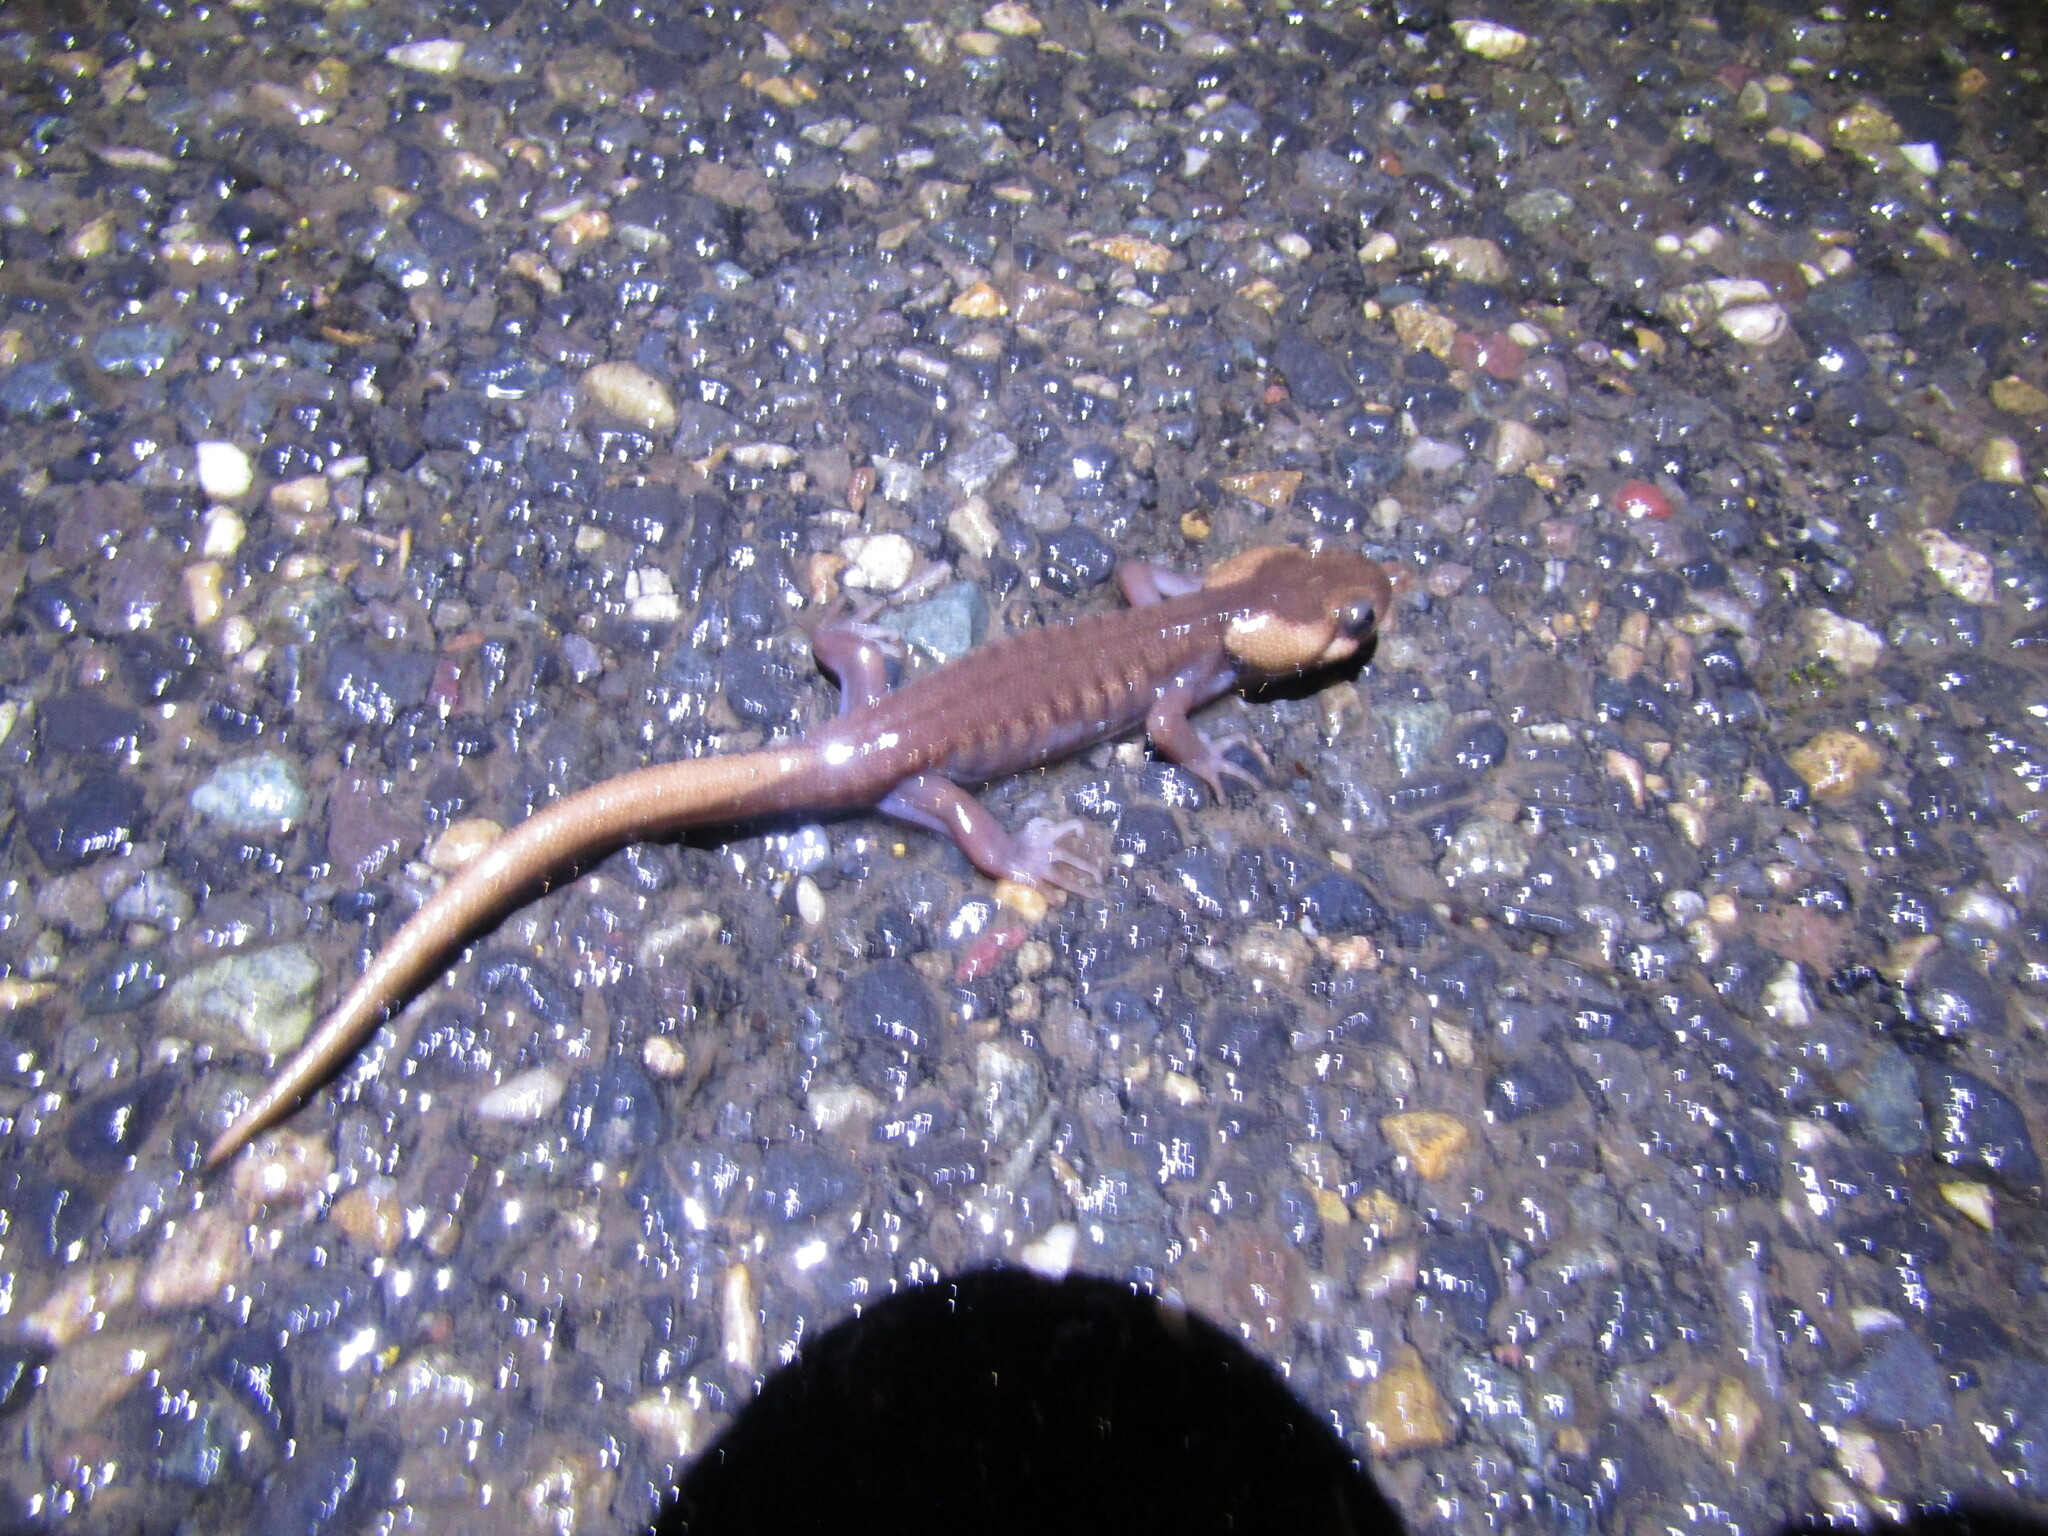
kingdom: Animalia
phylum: Chordata
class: Amphibia
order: Caudata
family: Ambystomatidae
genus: Ambystoma
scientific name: Ambystoma gracile
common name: Northwestern salamander
